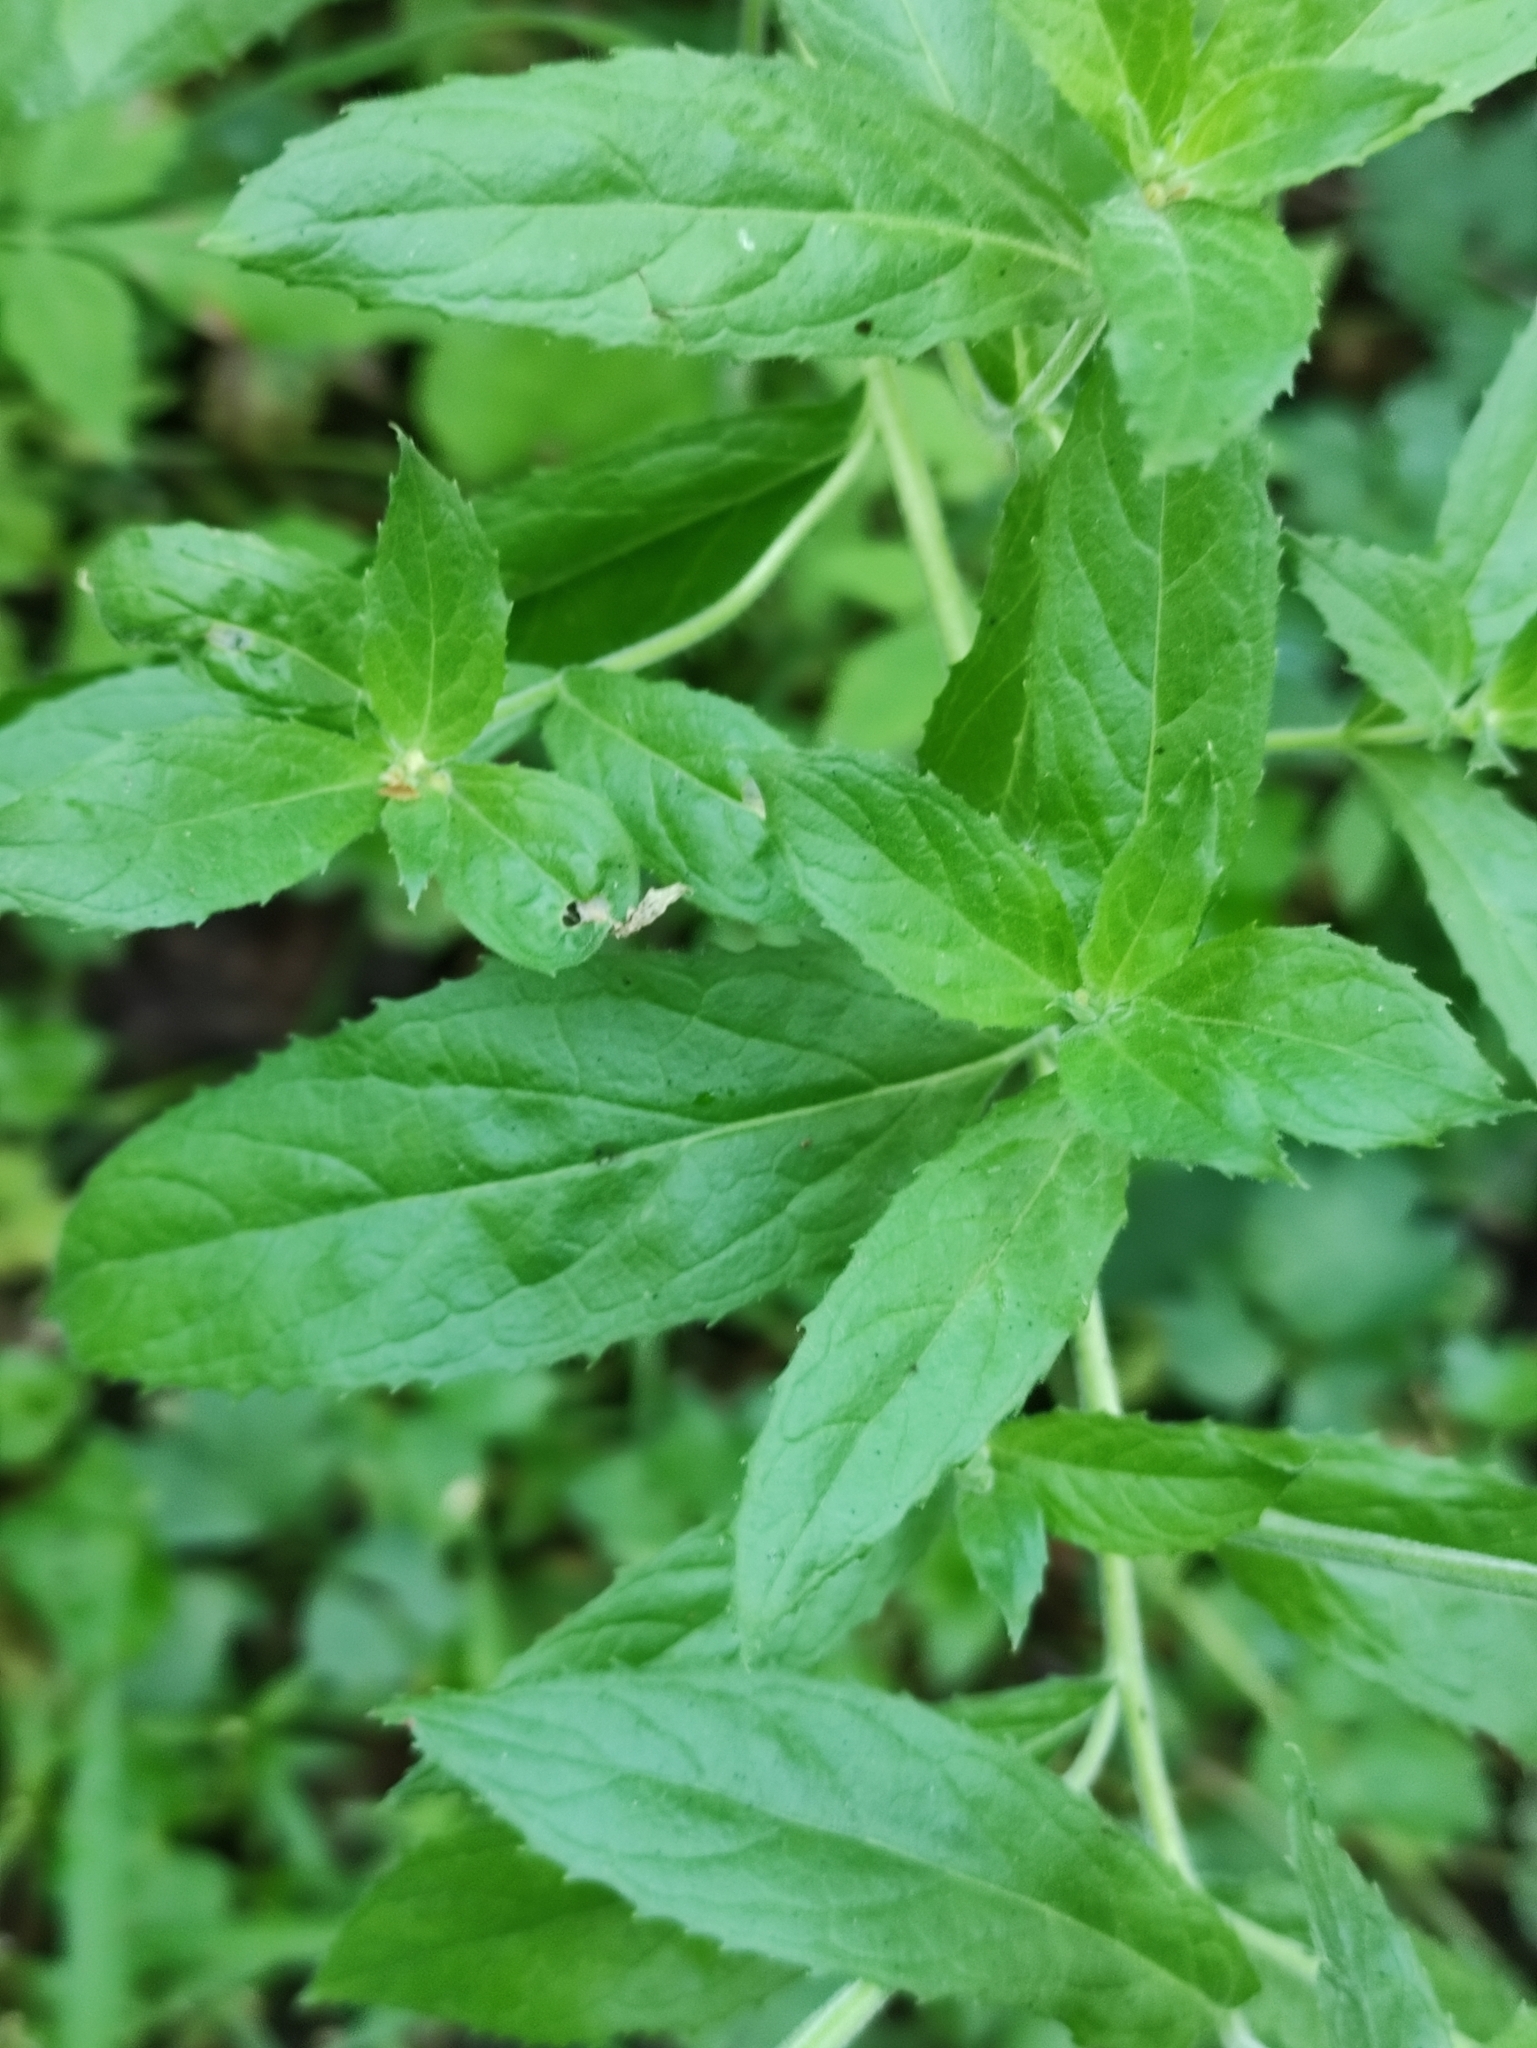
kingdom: Plantae
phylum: Tracheophyta
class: Magnoliopsida
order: Myrtales
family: Onagraceae
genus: Epilobium
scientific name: Epilobium hirsutum
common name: Great willowherb
